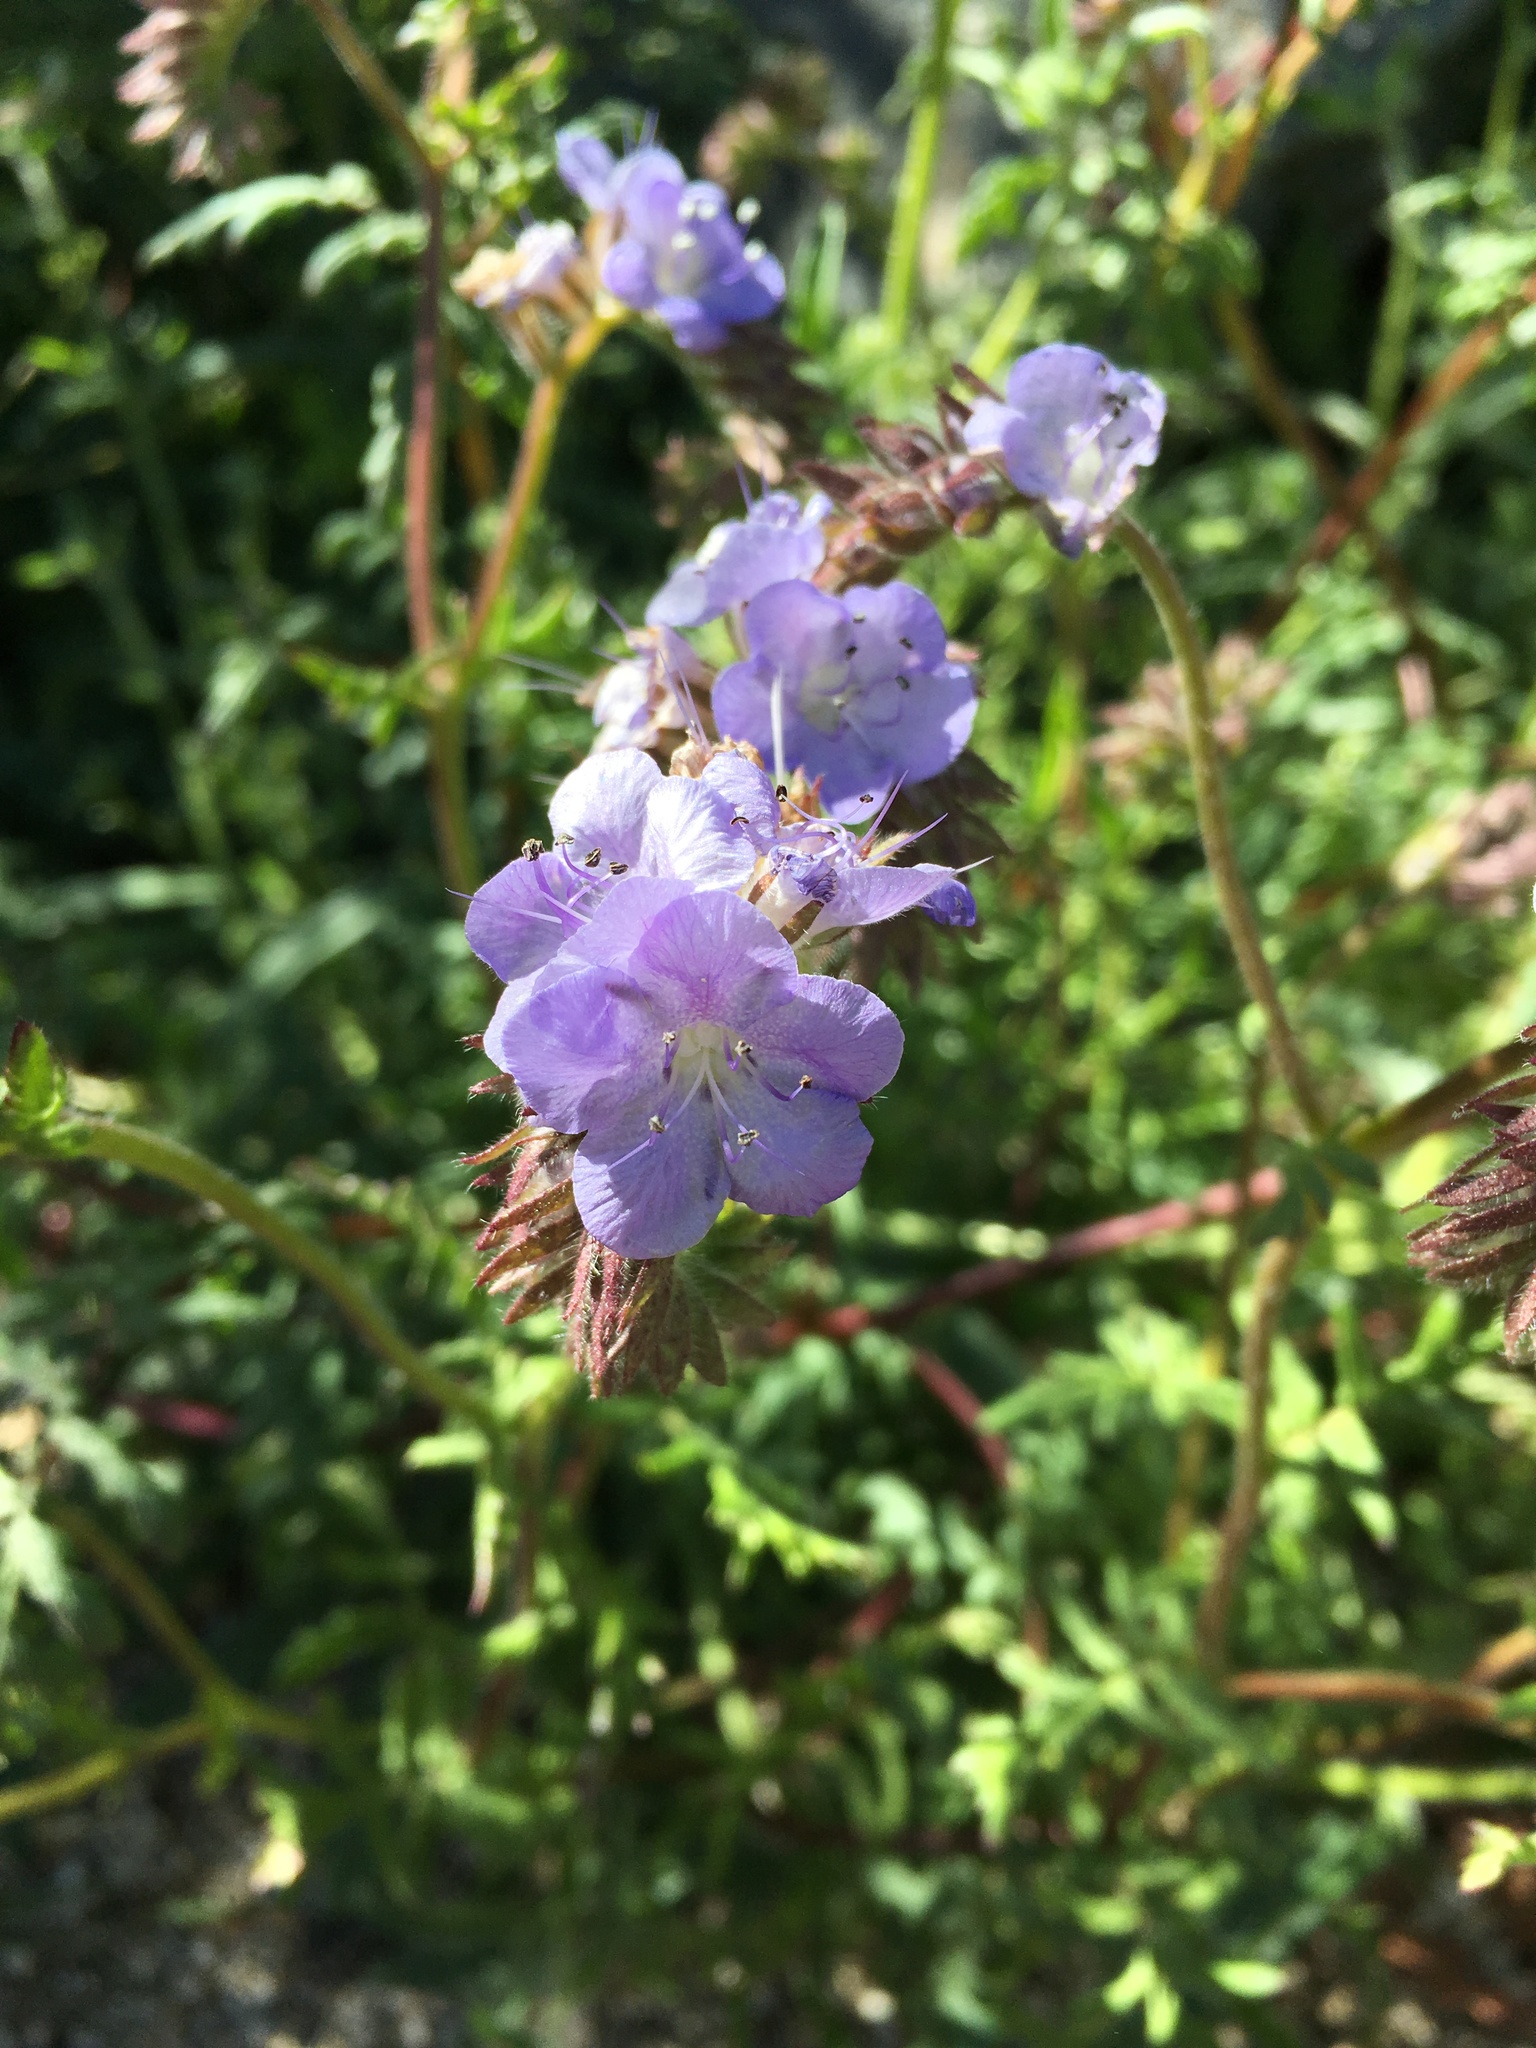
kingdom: Plantae
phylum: Tracheophyta
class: Magnoliopsida
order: Boraginales
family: Hydrophyllaceae
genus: Phacelia
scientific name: Phacelia distans
